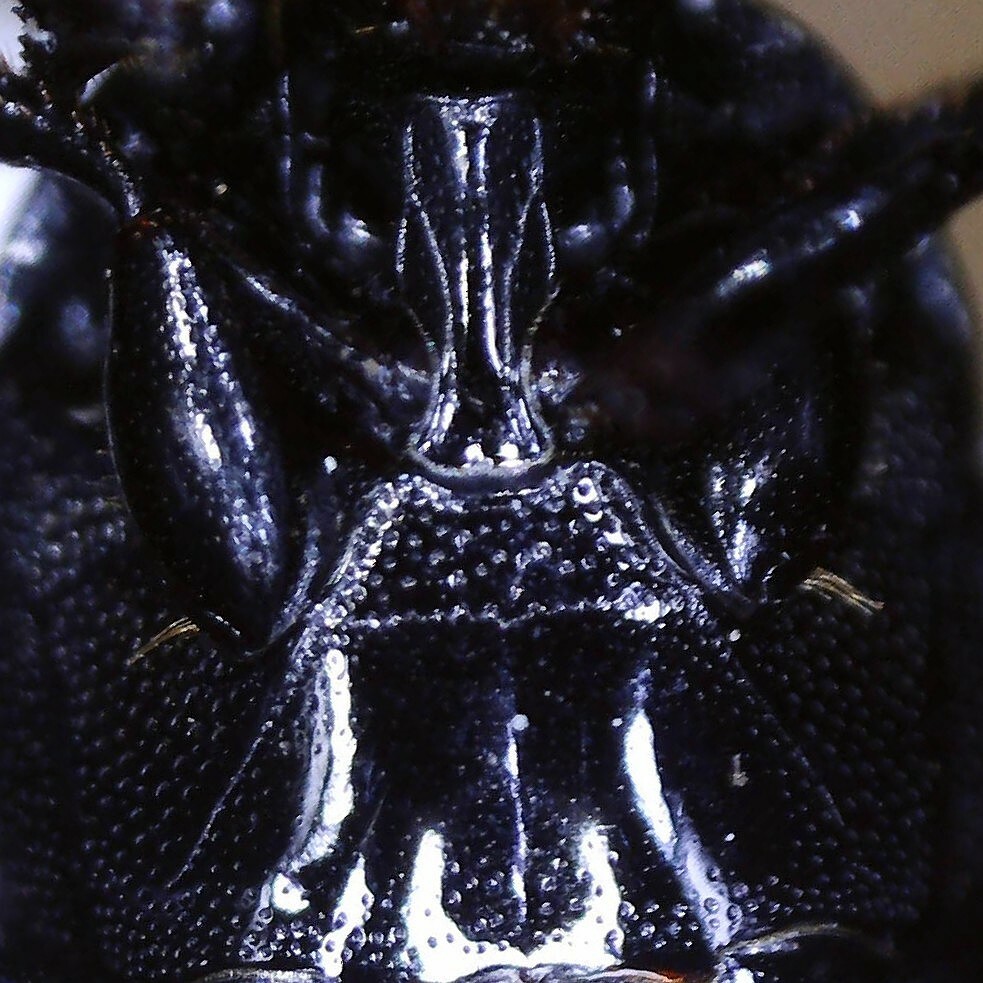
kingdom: Animalia
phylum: Arthropoda
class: Insecta
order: Coleoptera
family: Histeridae
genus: Saprinus
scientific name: Saprinus semistriatus
